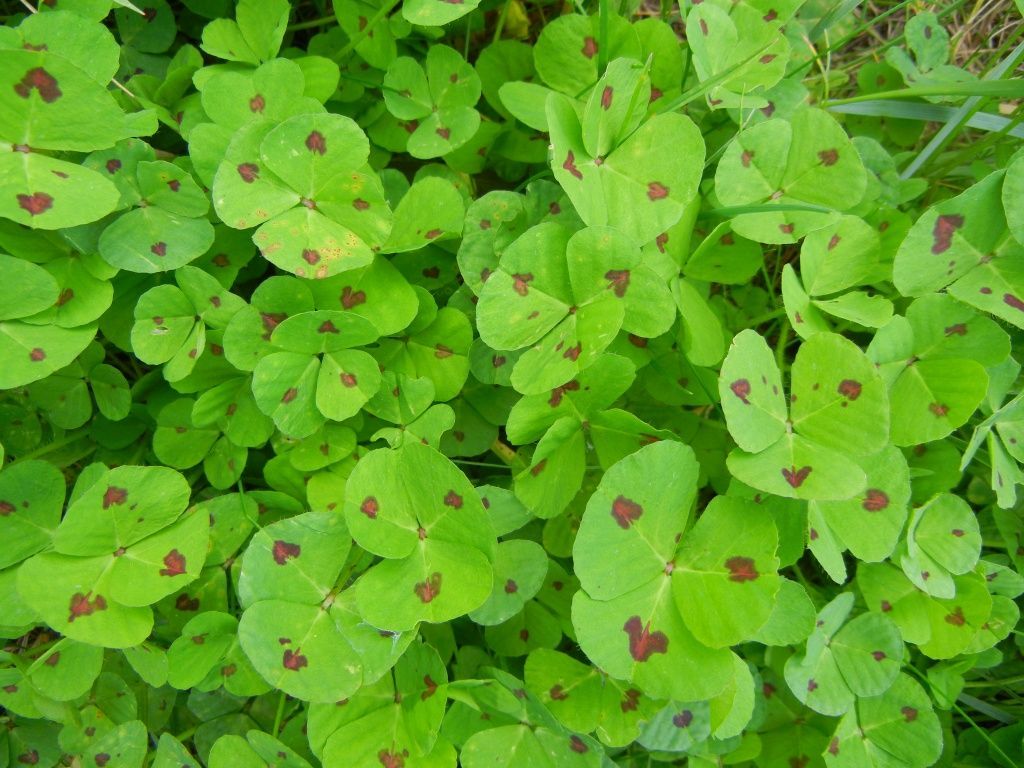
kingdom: Plantae
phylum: Tracheophyta
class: Magnoliopsida
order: Fabales
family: Fabaceae
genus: Medicago
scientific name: Medicago arabica
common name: Spotted medick
